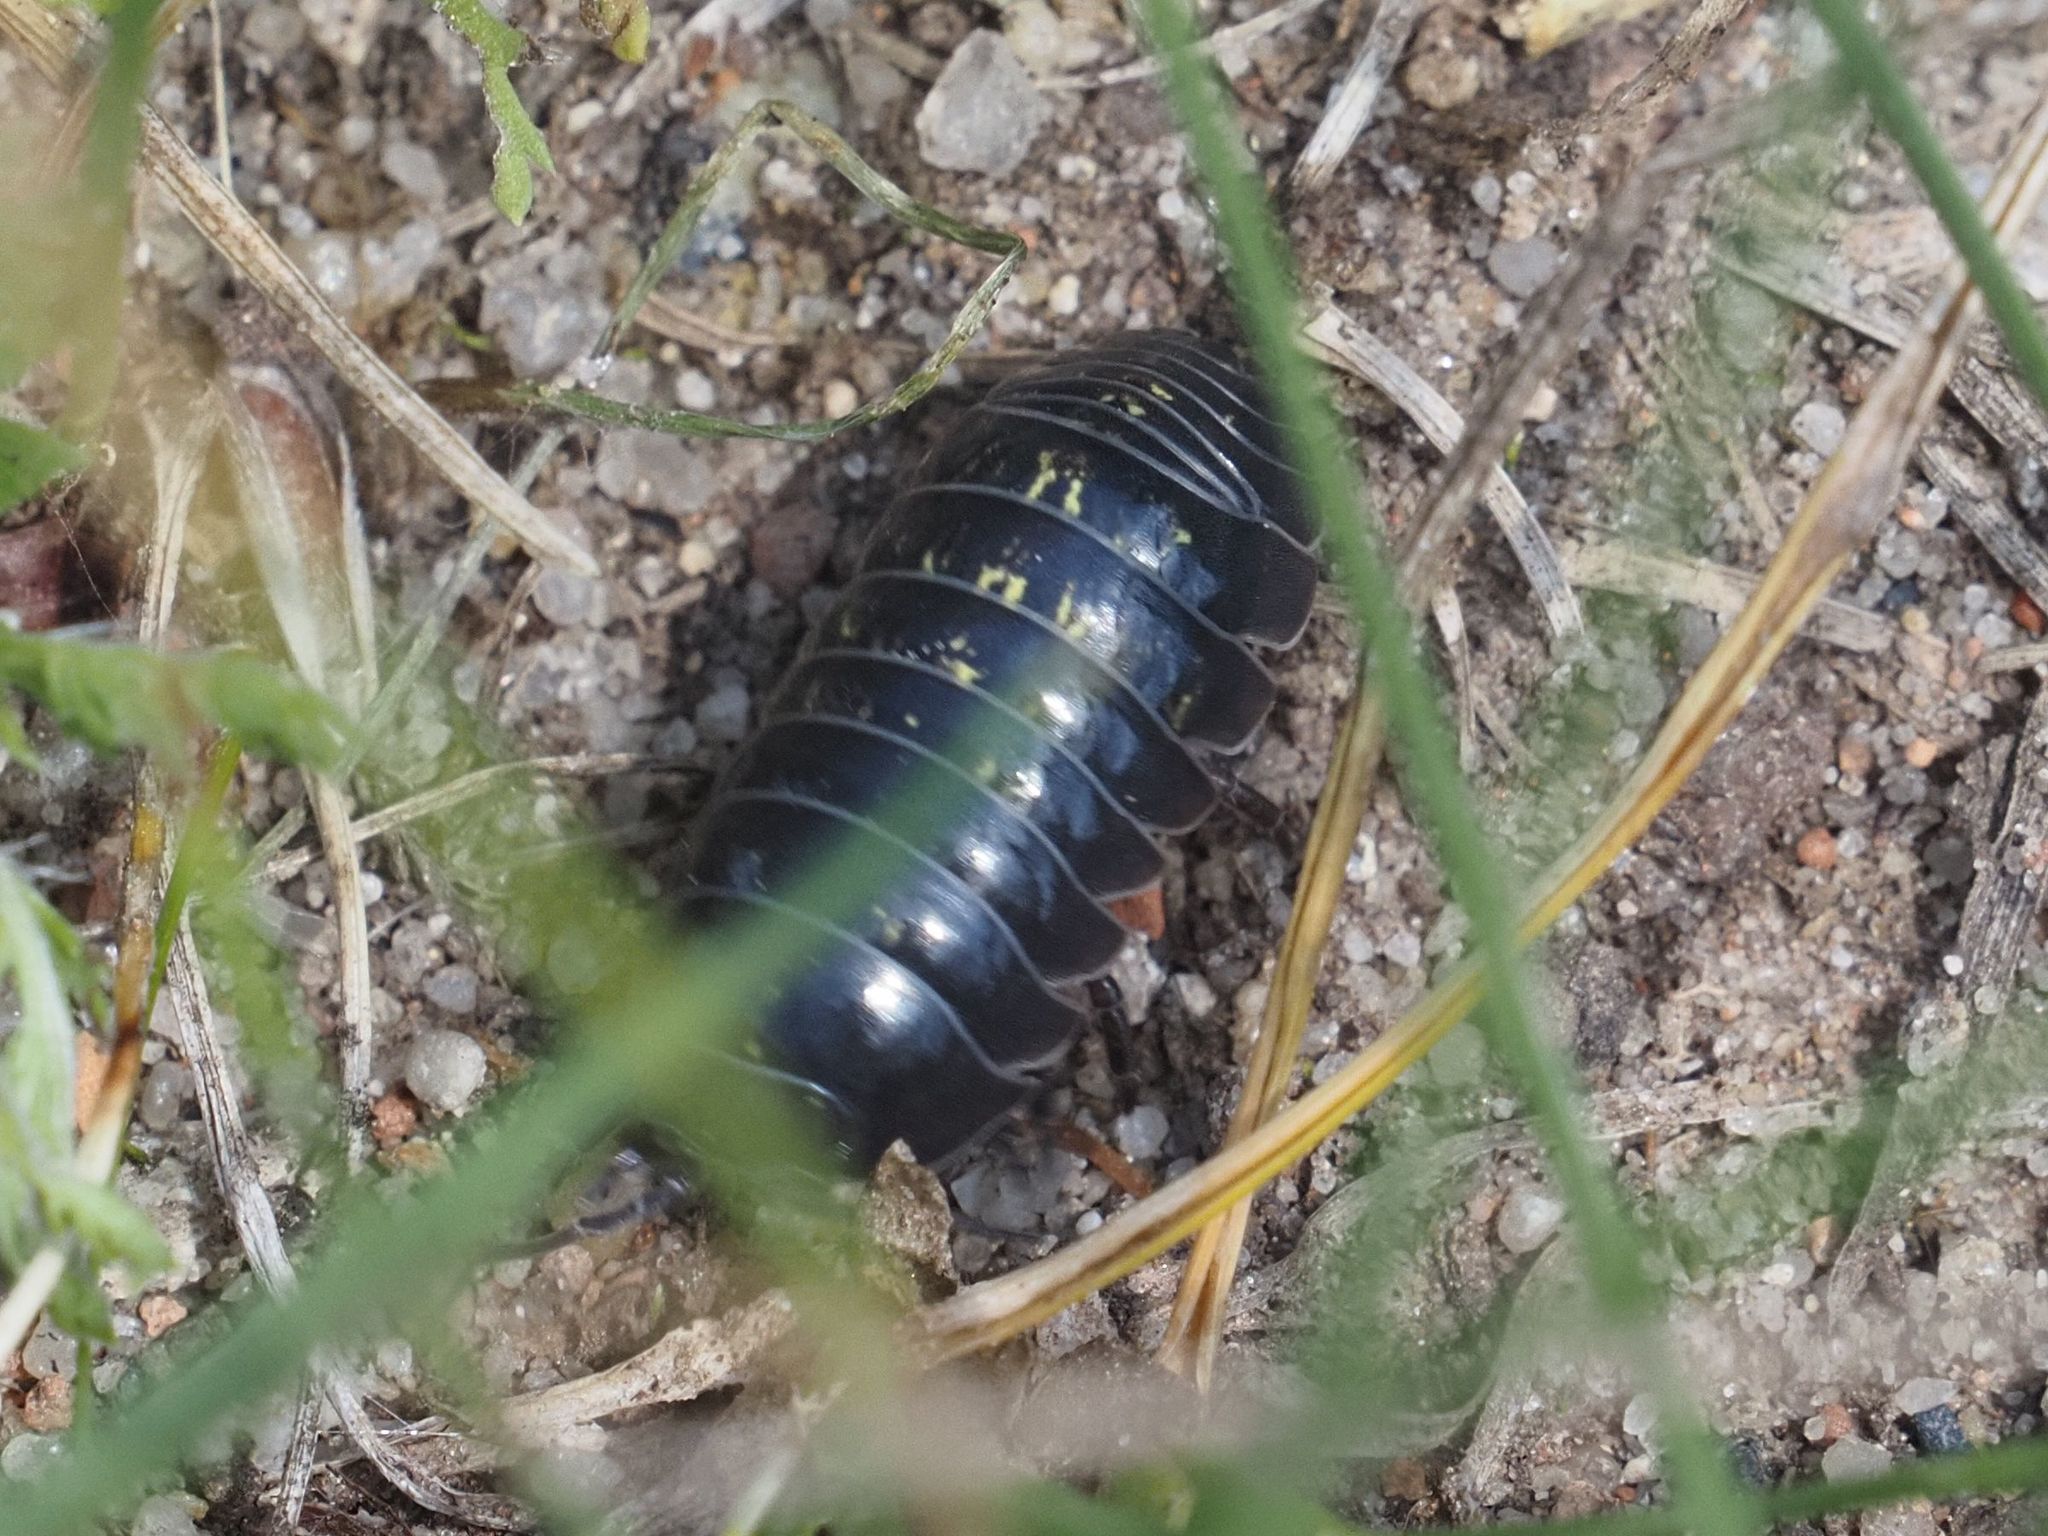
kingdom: Animalia
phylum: Arthropoda
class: Malacostraca
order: Isopoda
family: Armadillidiidae
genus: Armadillidium
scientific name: Armadillidium vulgare
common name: Common pill woodlouse
